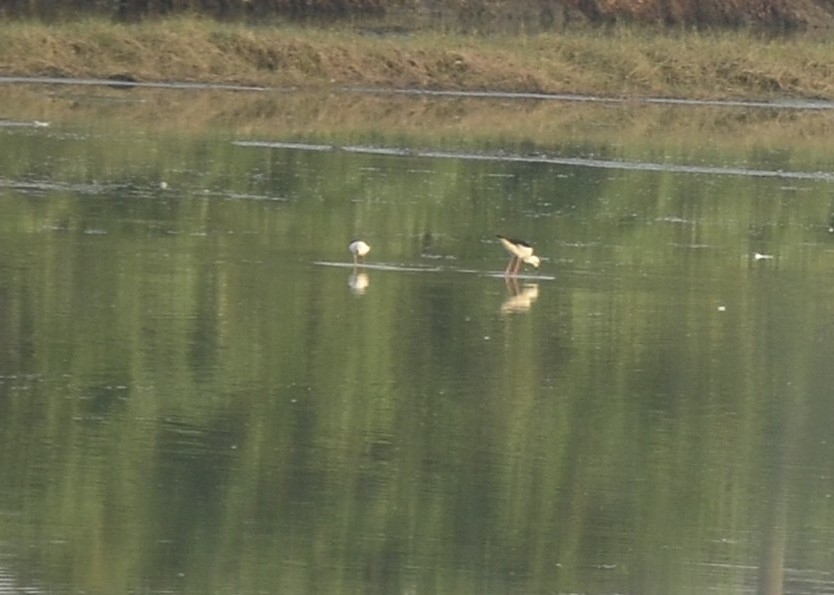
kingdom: Animalia
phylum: Chordata
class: Aves
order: Charadriiformes
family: Recurvirostridae
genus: Himantopus
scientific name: Himantopus himantopus
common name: Black-winged stilt
